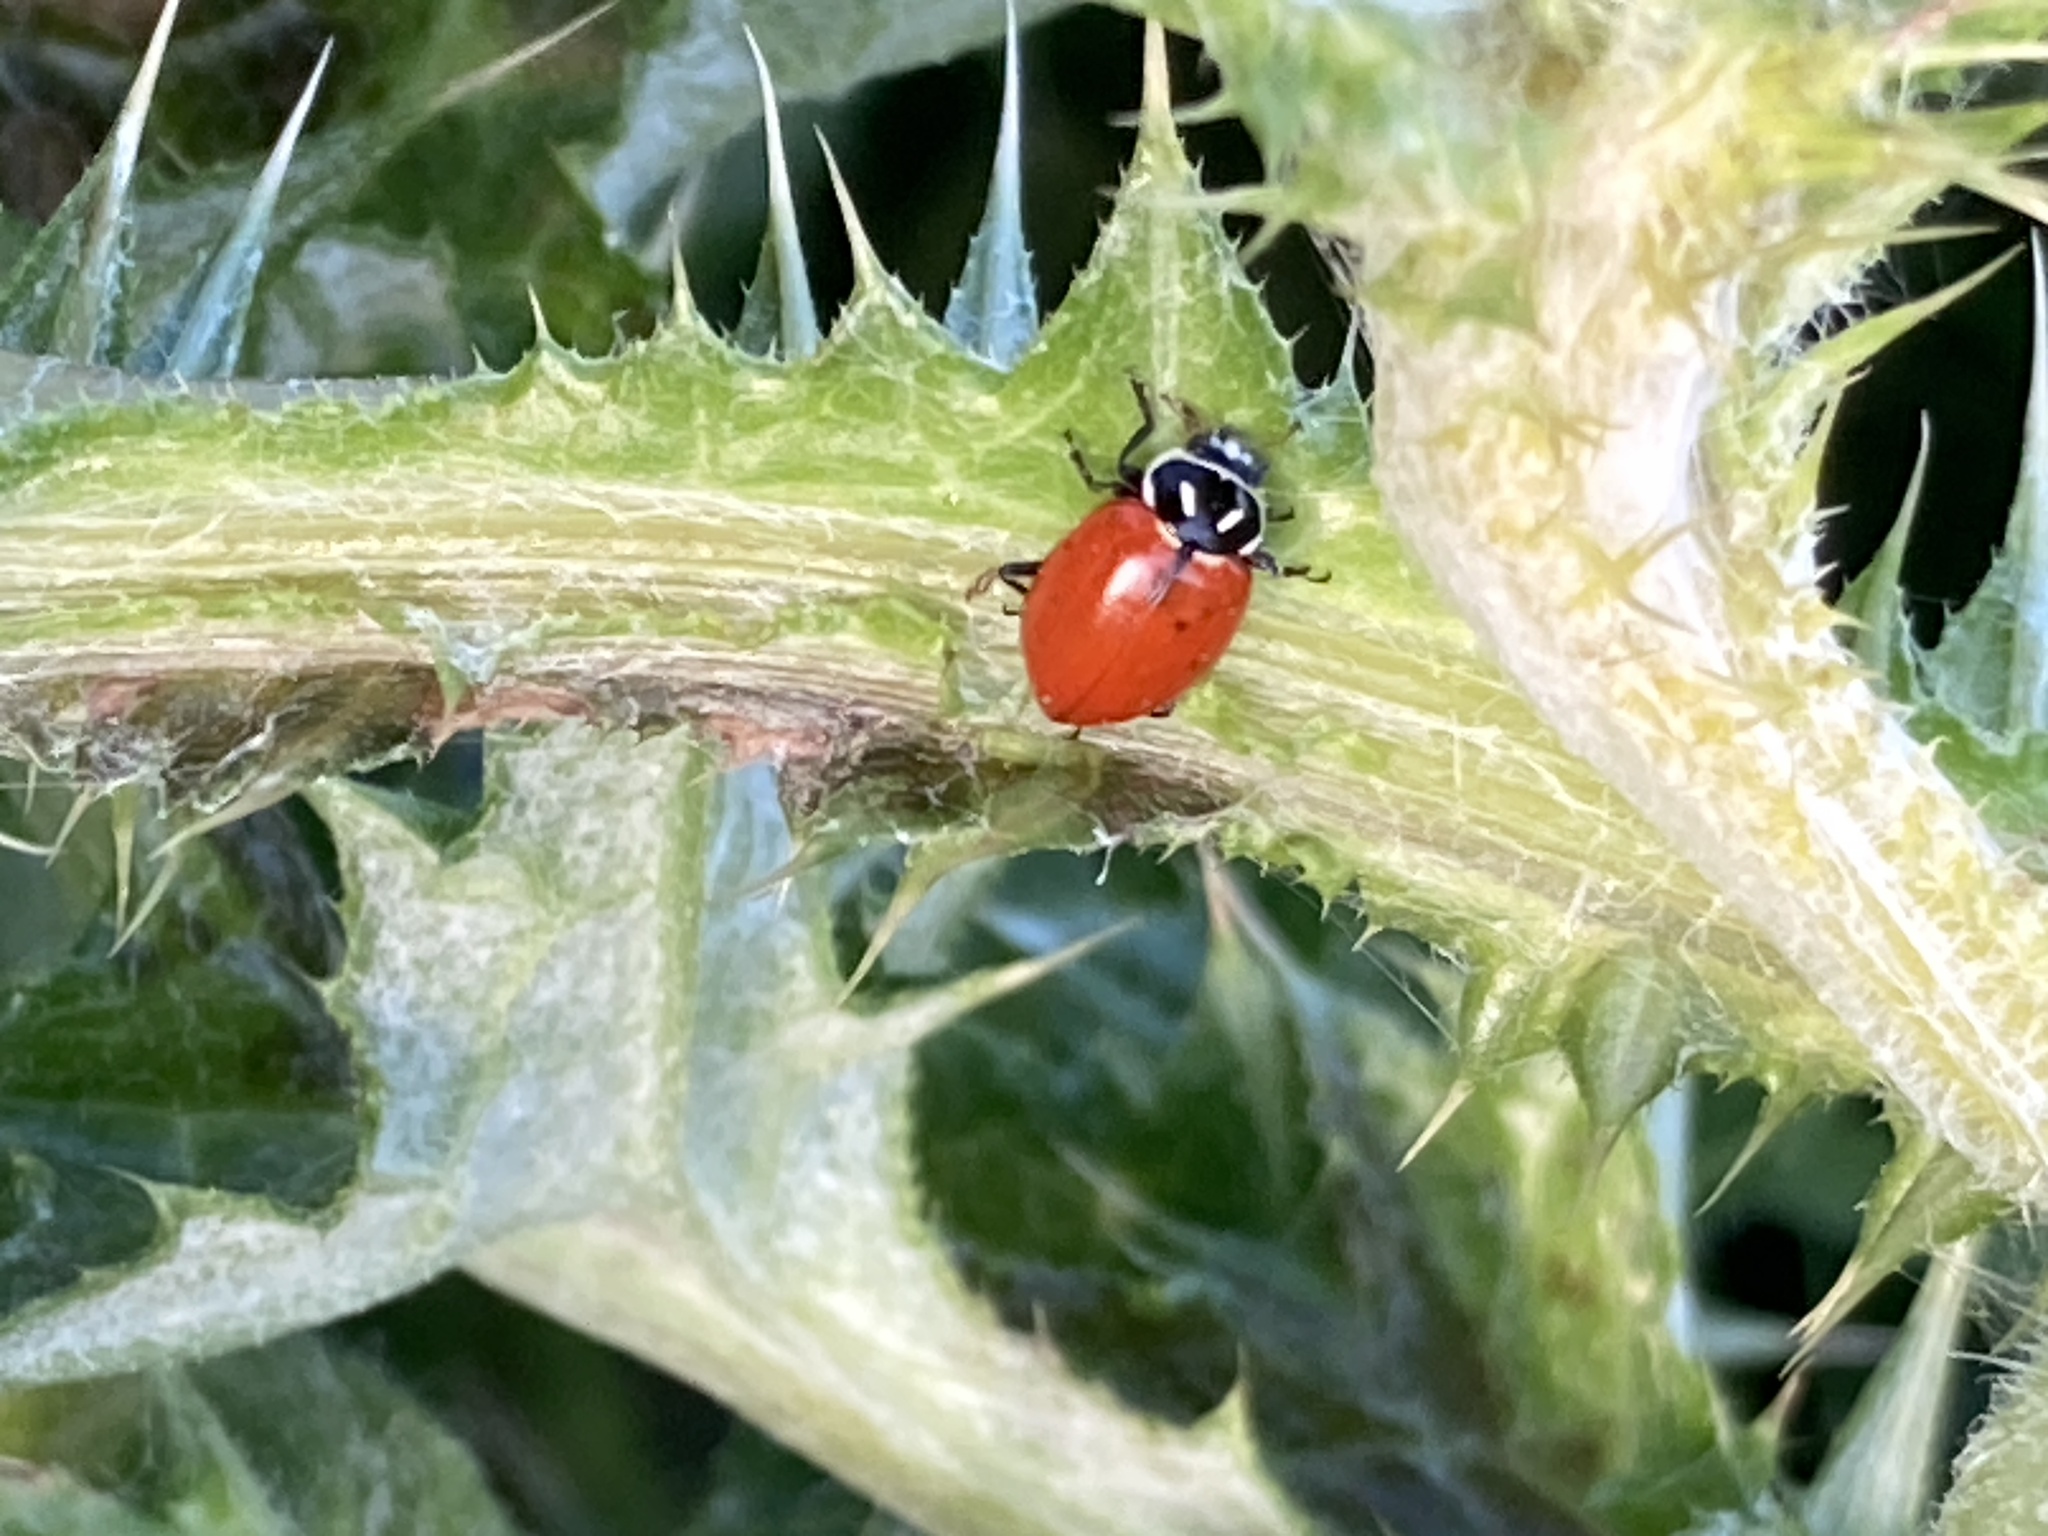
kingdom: Animalia
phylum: Arthropoda
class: Insecta
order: Coleoptera
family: Coccinellidae
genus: Hippodamia
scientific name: Hippodamia convergens
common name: Convergent lady beetle
